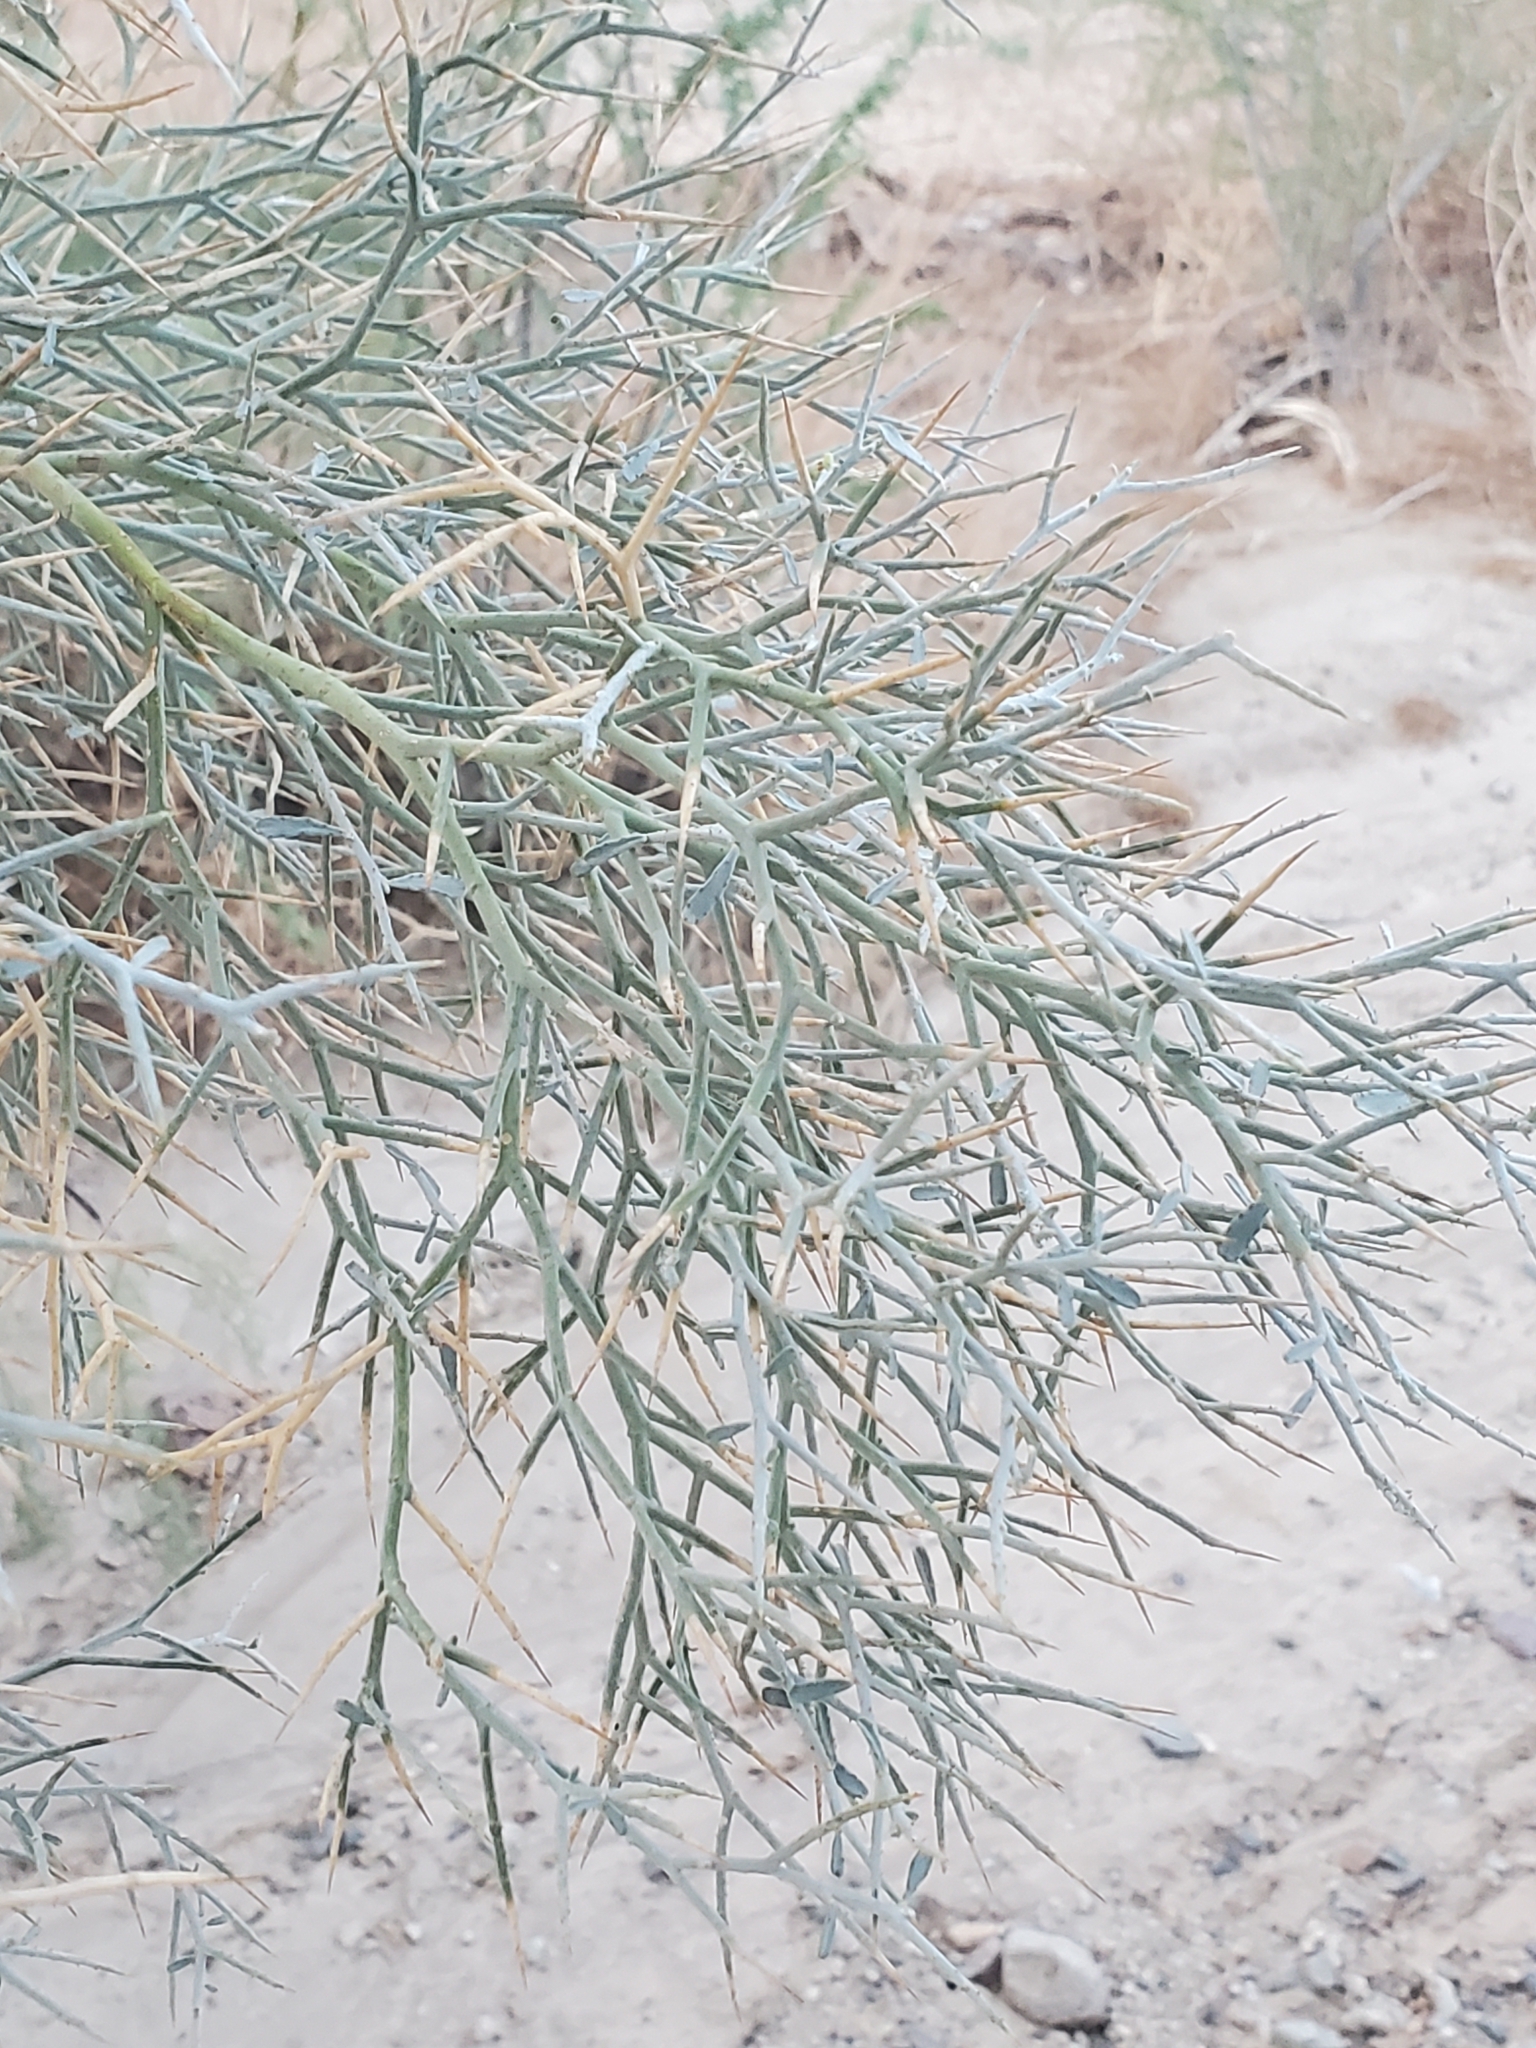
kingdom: Plantae
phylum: Tracheophyta
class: Magnoliopsida
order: Fabales
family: Fabaceae
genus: Psorothamnus
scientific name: Psorothamnus spinosus
